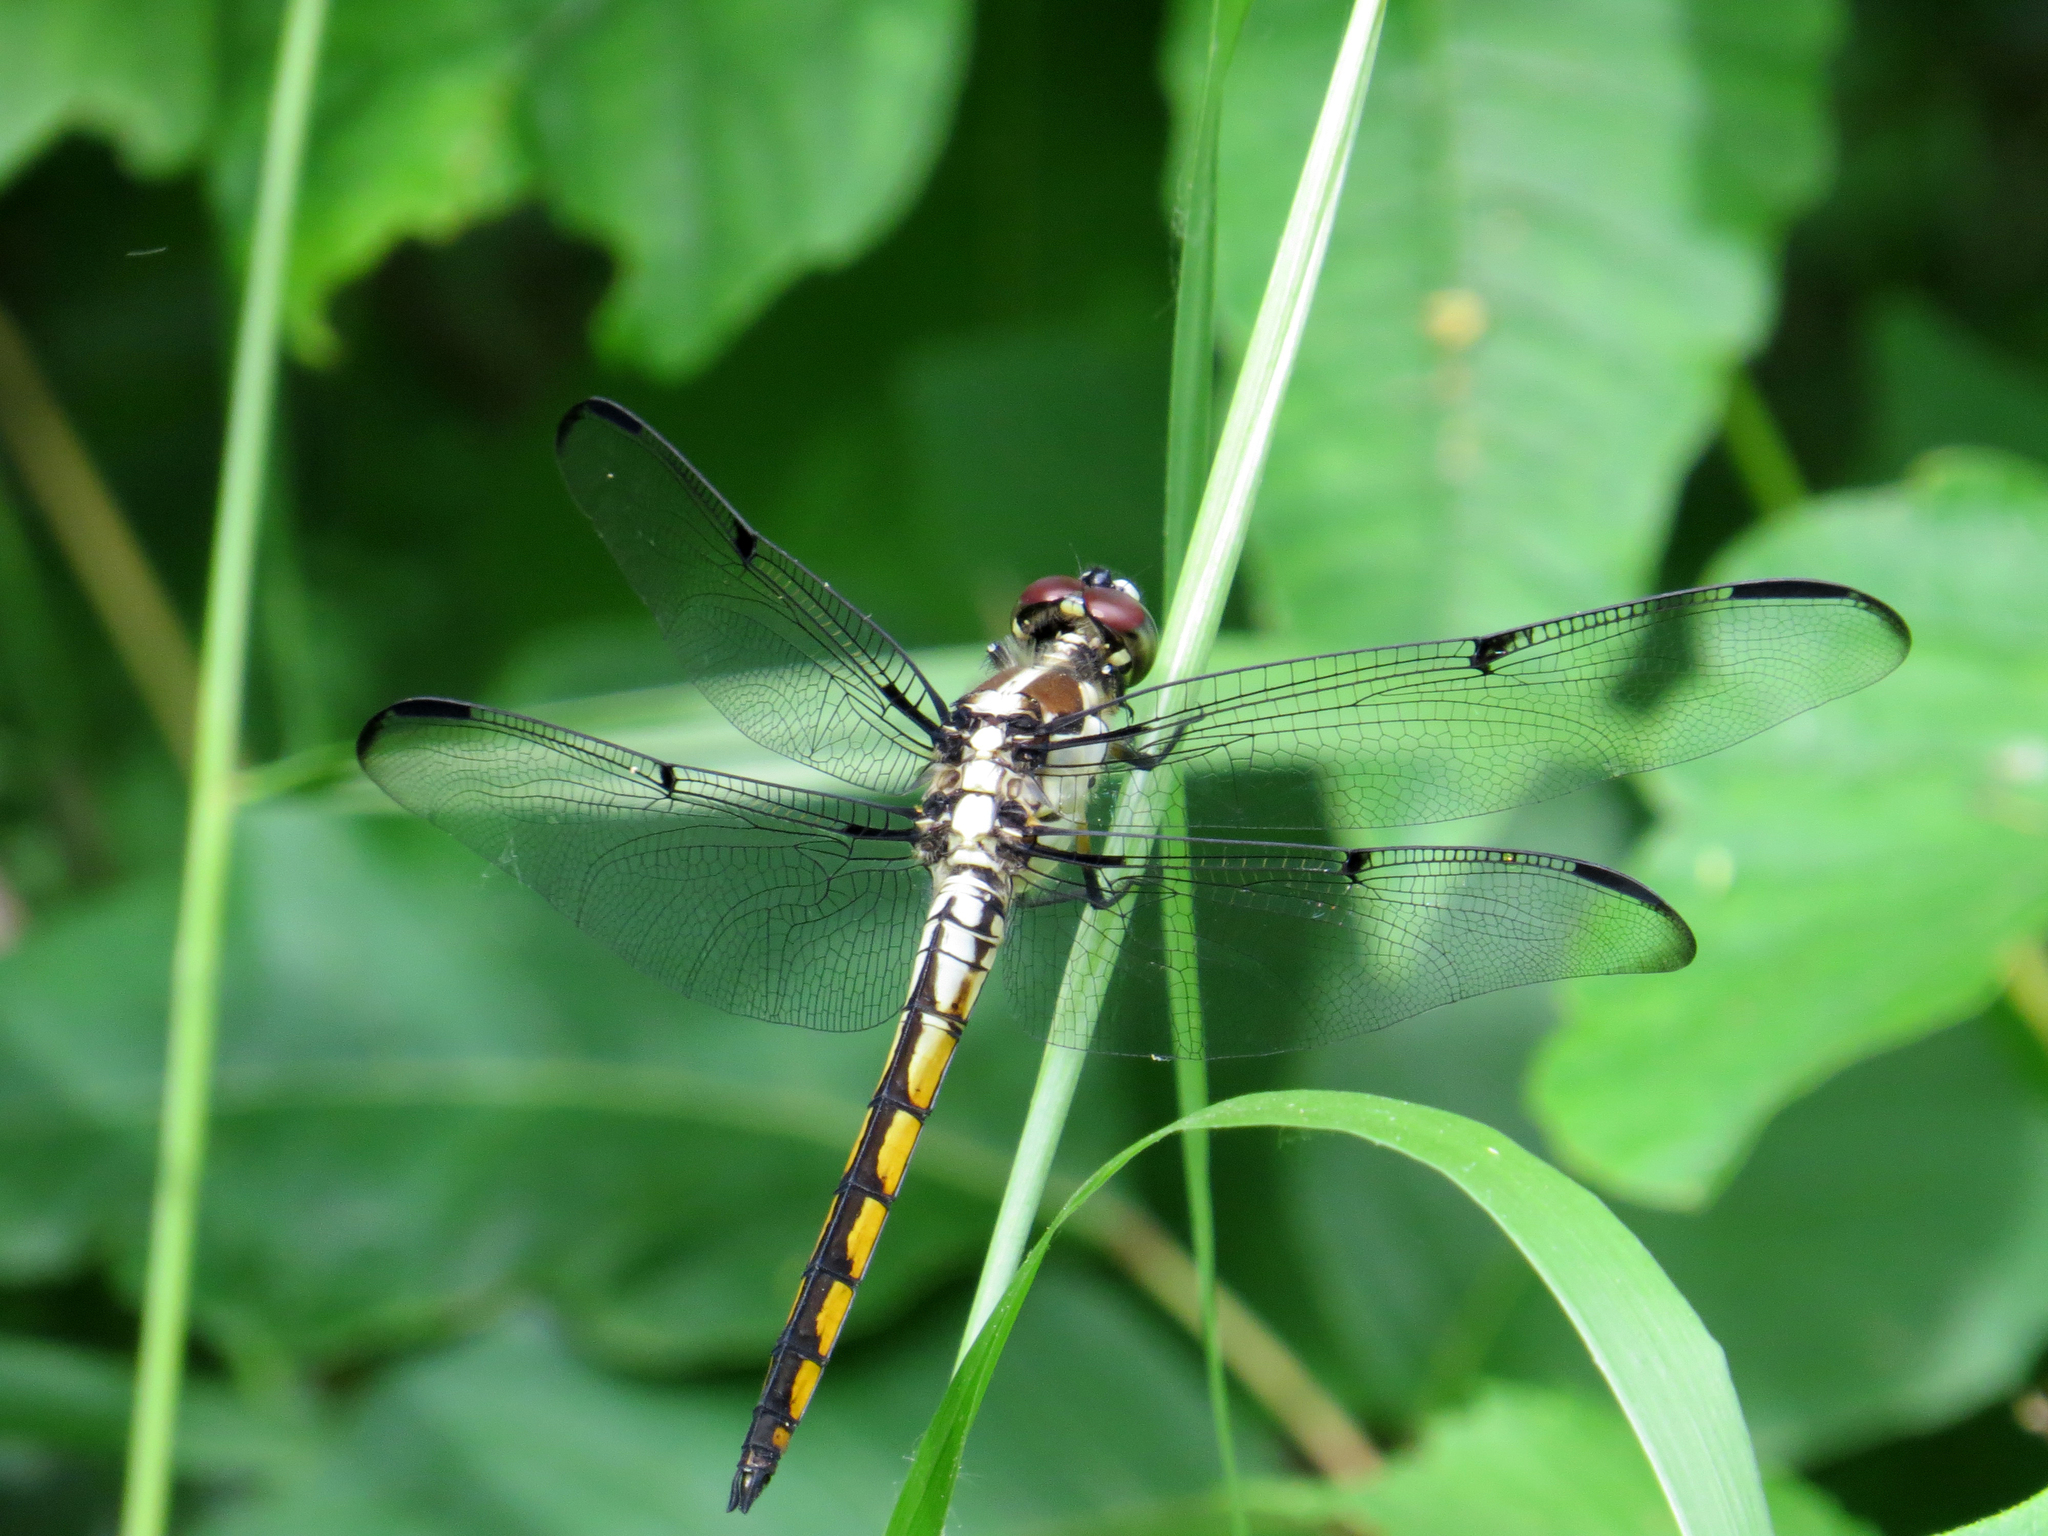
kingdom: Animalia
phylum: Arthropoda
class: Insecta
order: Odonata
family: Libellulidae
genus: Libellula
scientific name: Libellula vibrans
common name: Great blue skimmer
